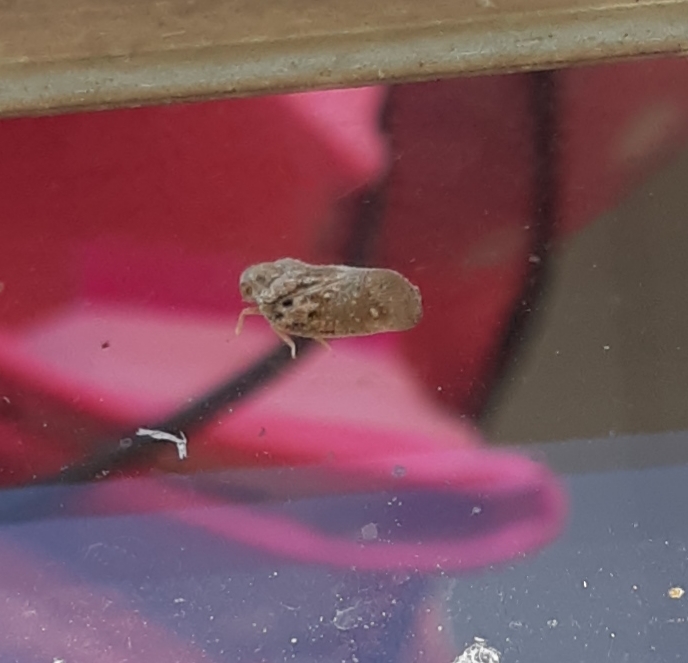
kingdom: Animalia
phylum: Arthropoda
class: Insecta
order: Hemiptera
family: Flatidae
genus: Metcalfa
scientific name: Metcalfa pruinosa
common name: Citrus flatid planthopper
